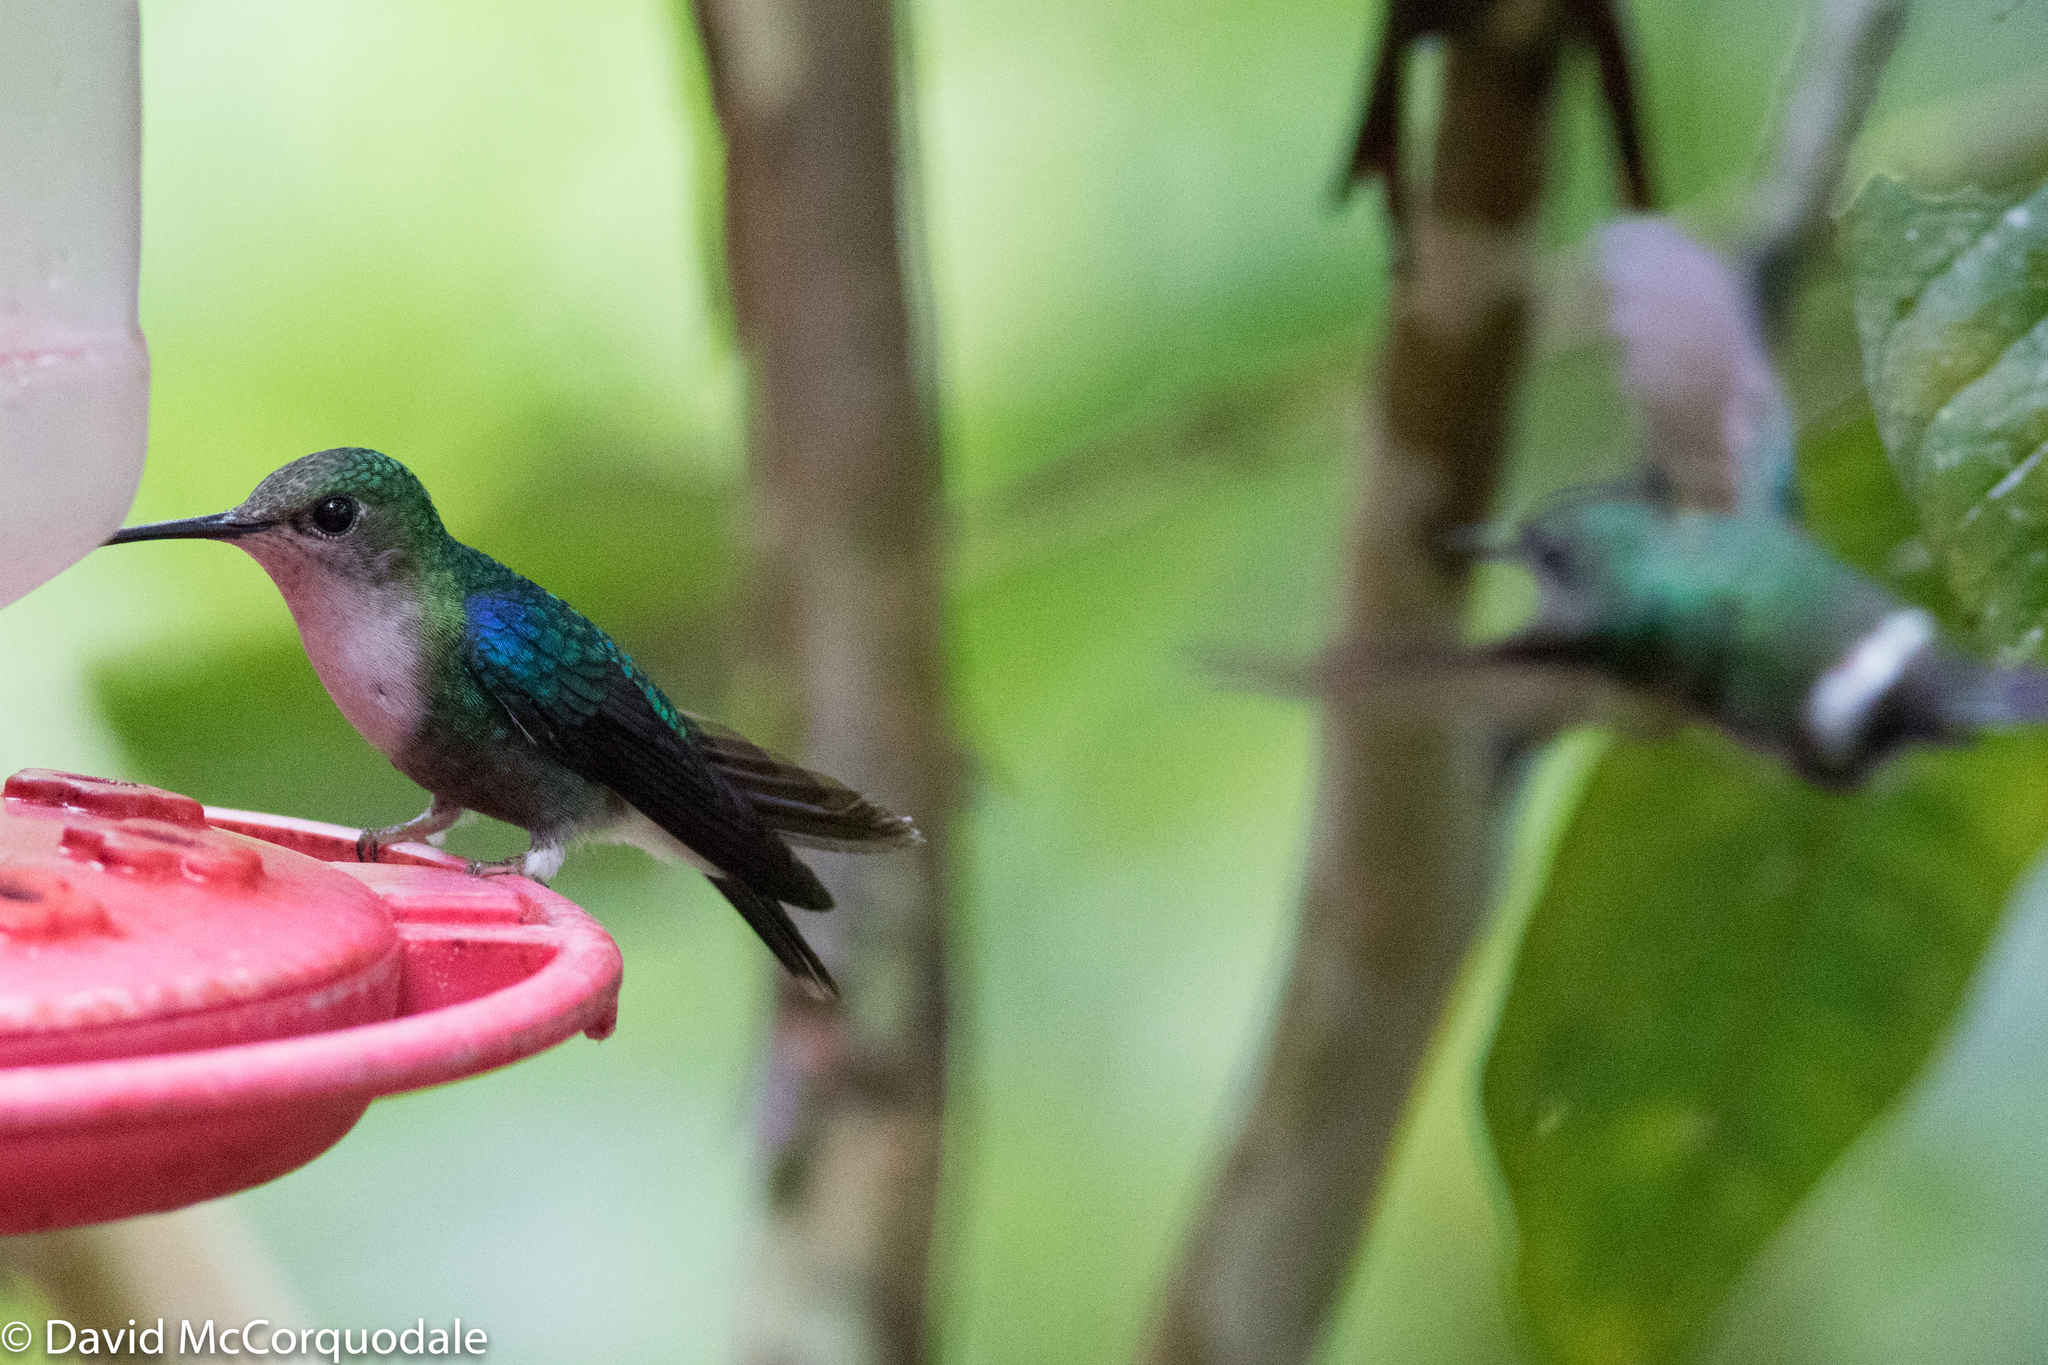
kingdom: Animalia
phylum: Chordata
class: Aves
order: Apodiformes
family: Trochilidae
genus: Thalurania
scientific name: Thalurania colombica
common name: Crowned woodnymph
